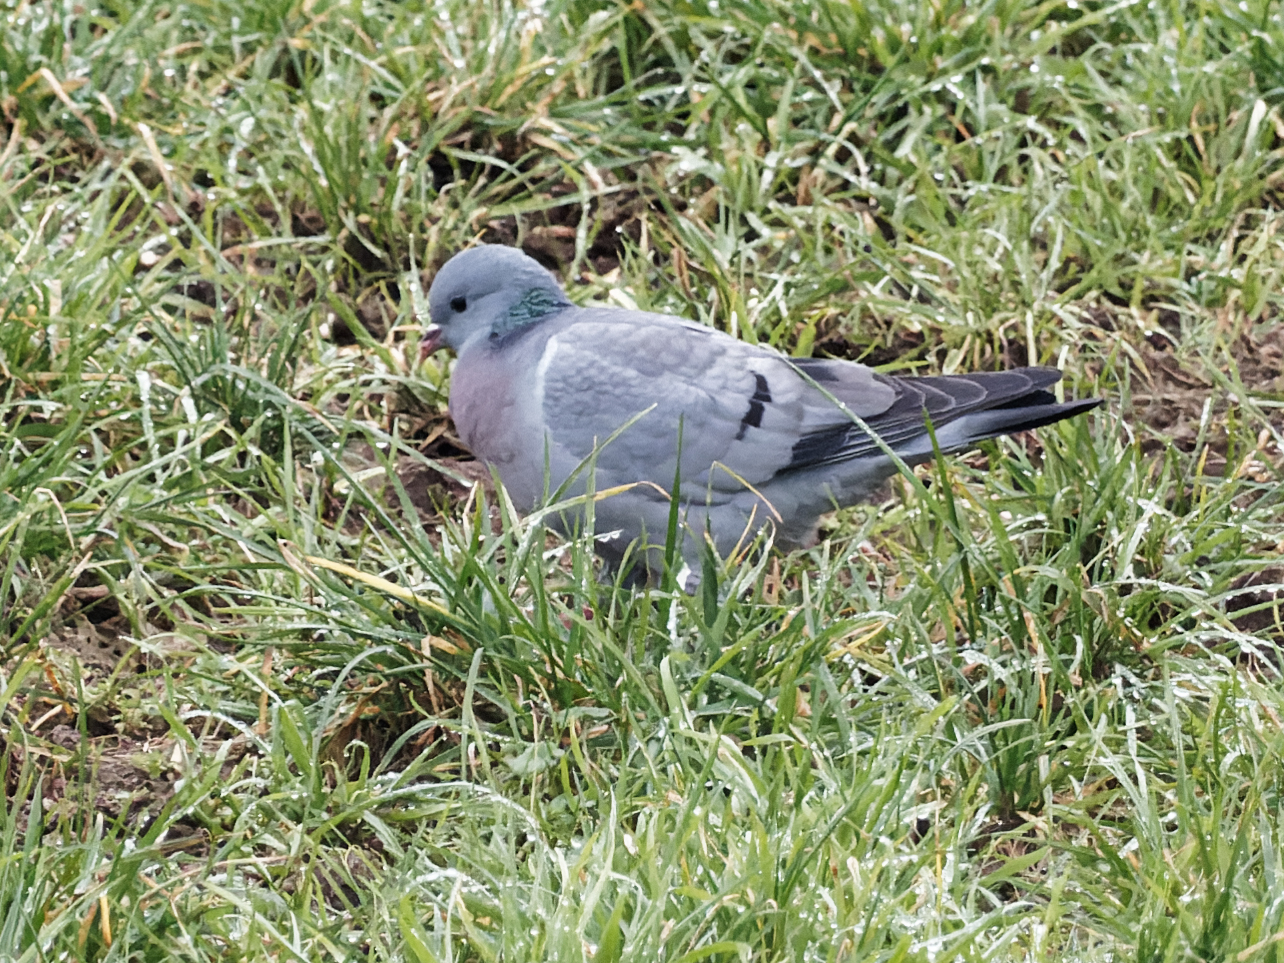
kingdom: Animalia
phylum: Chordata
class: Aves
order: Columbiformes
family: Columbidae
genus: Columba
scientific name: Columba oenas
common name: Stock dove
